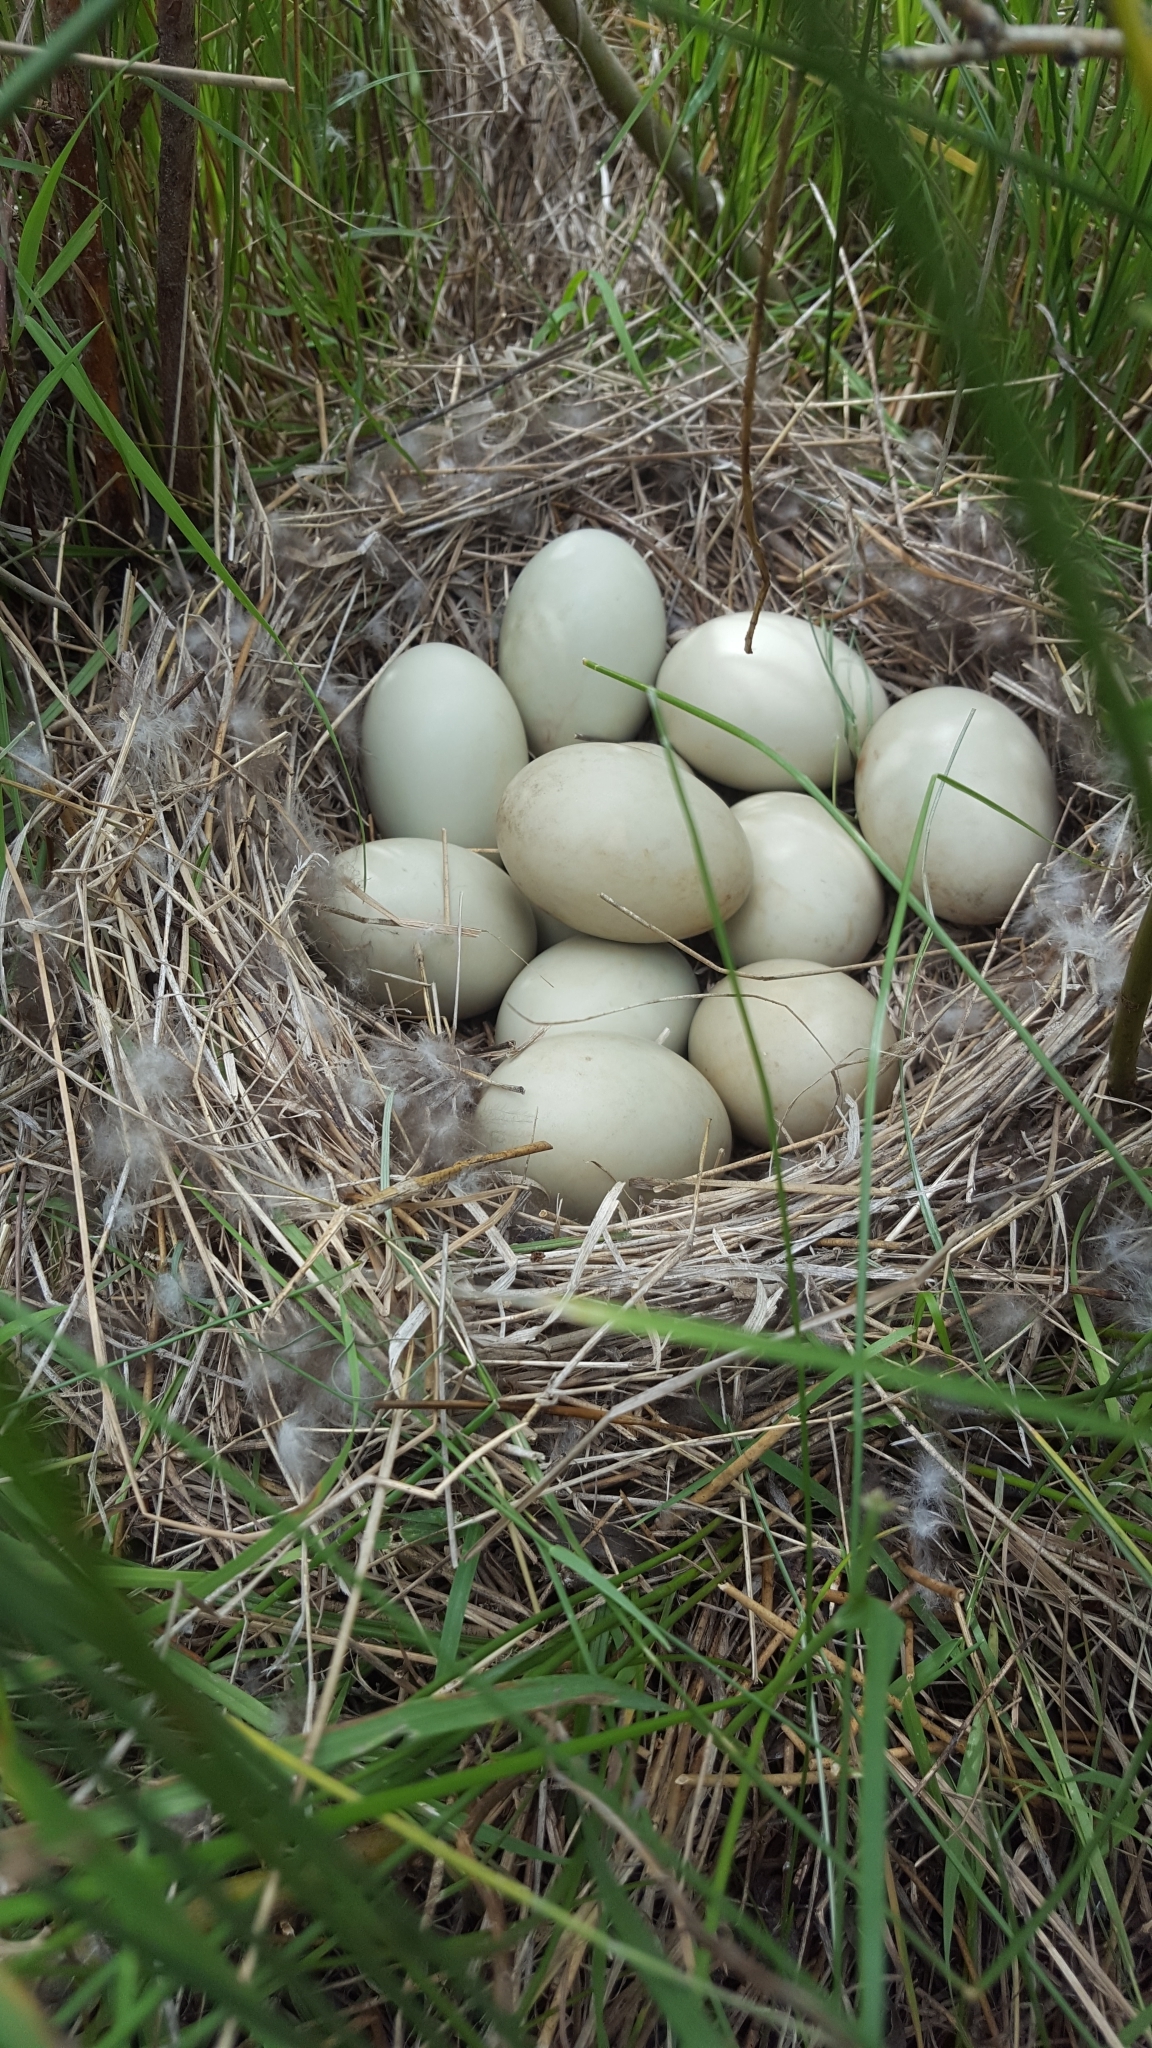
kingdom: Animalia
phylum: Chordata
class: Aves
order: Anseriformes
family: Anatidae
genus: Anas
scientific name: Anas platyrhynchos
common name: Mallard
